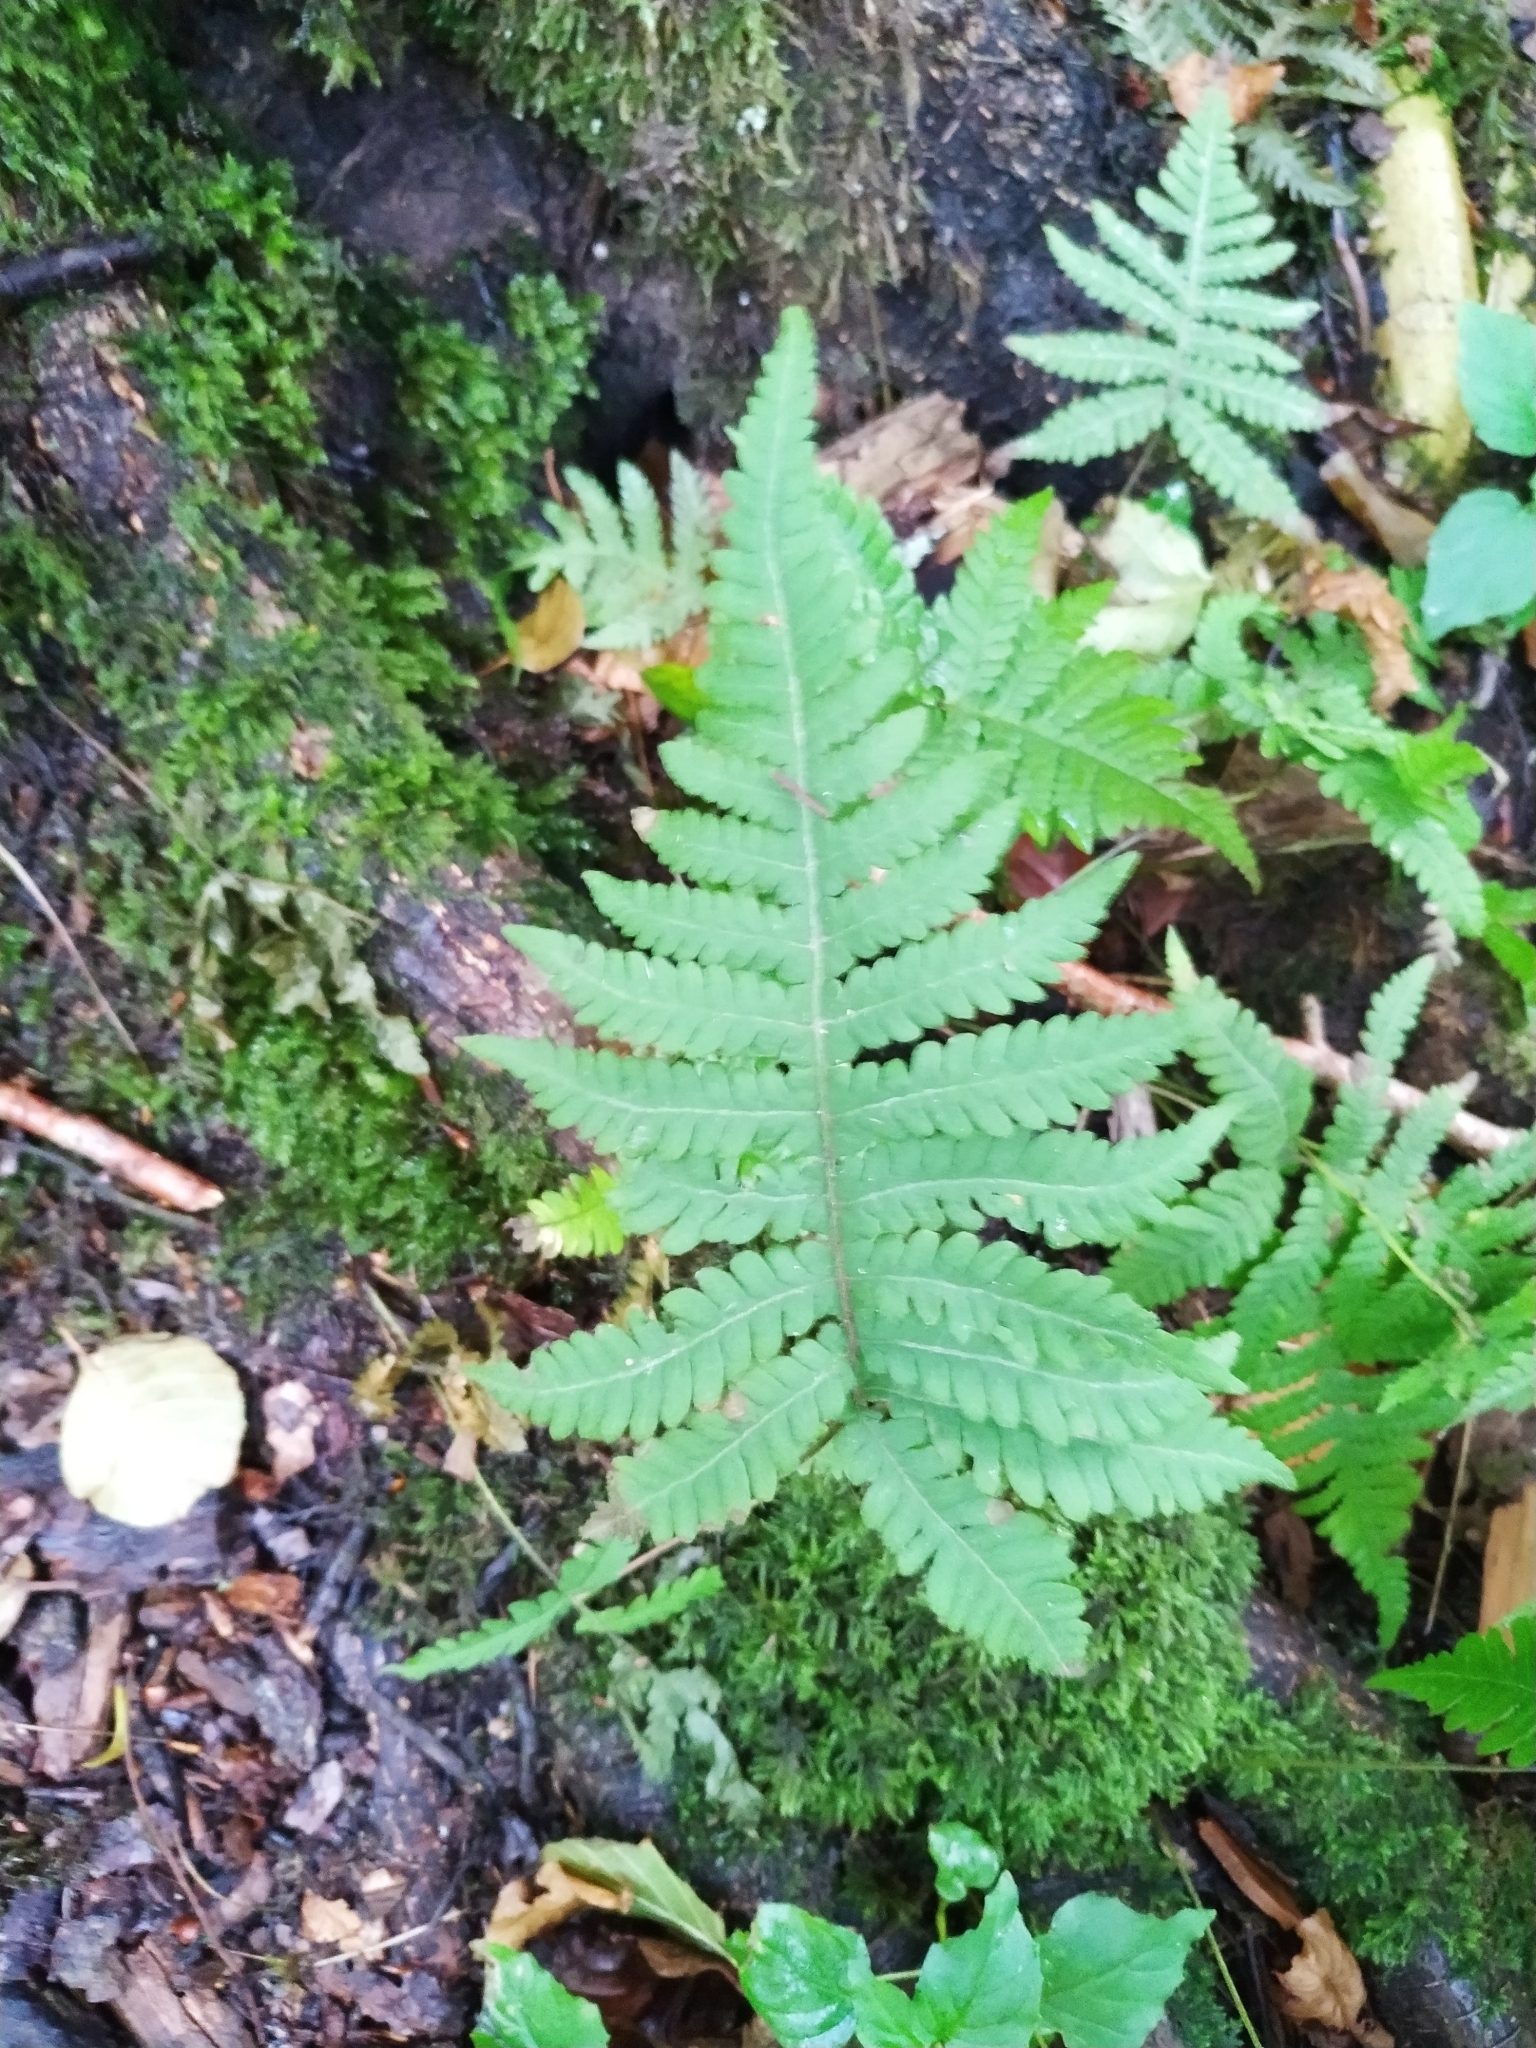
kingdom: Plantae
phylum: Tracheophyta
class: Polypodiopsida
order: Polypodiales
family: Thelypteridaceae
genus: Phegopteris
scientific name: Phegopteris connectilis
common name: Beech fern
